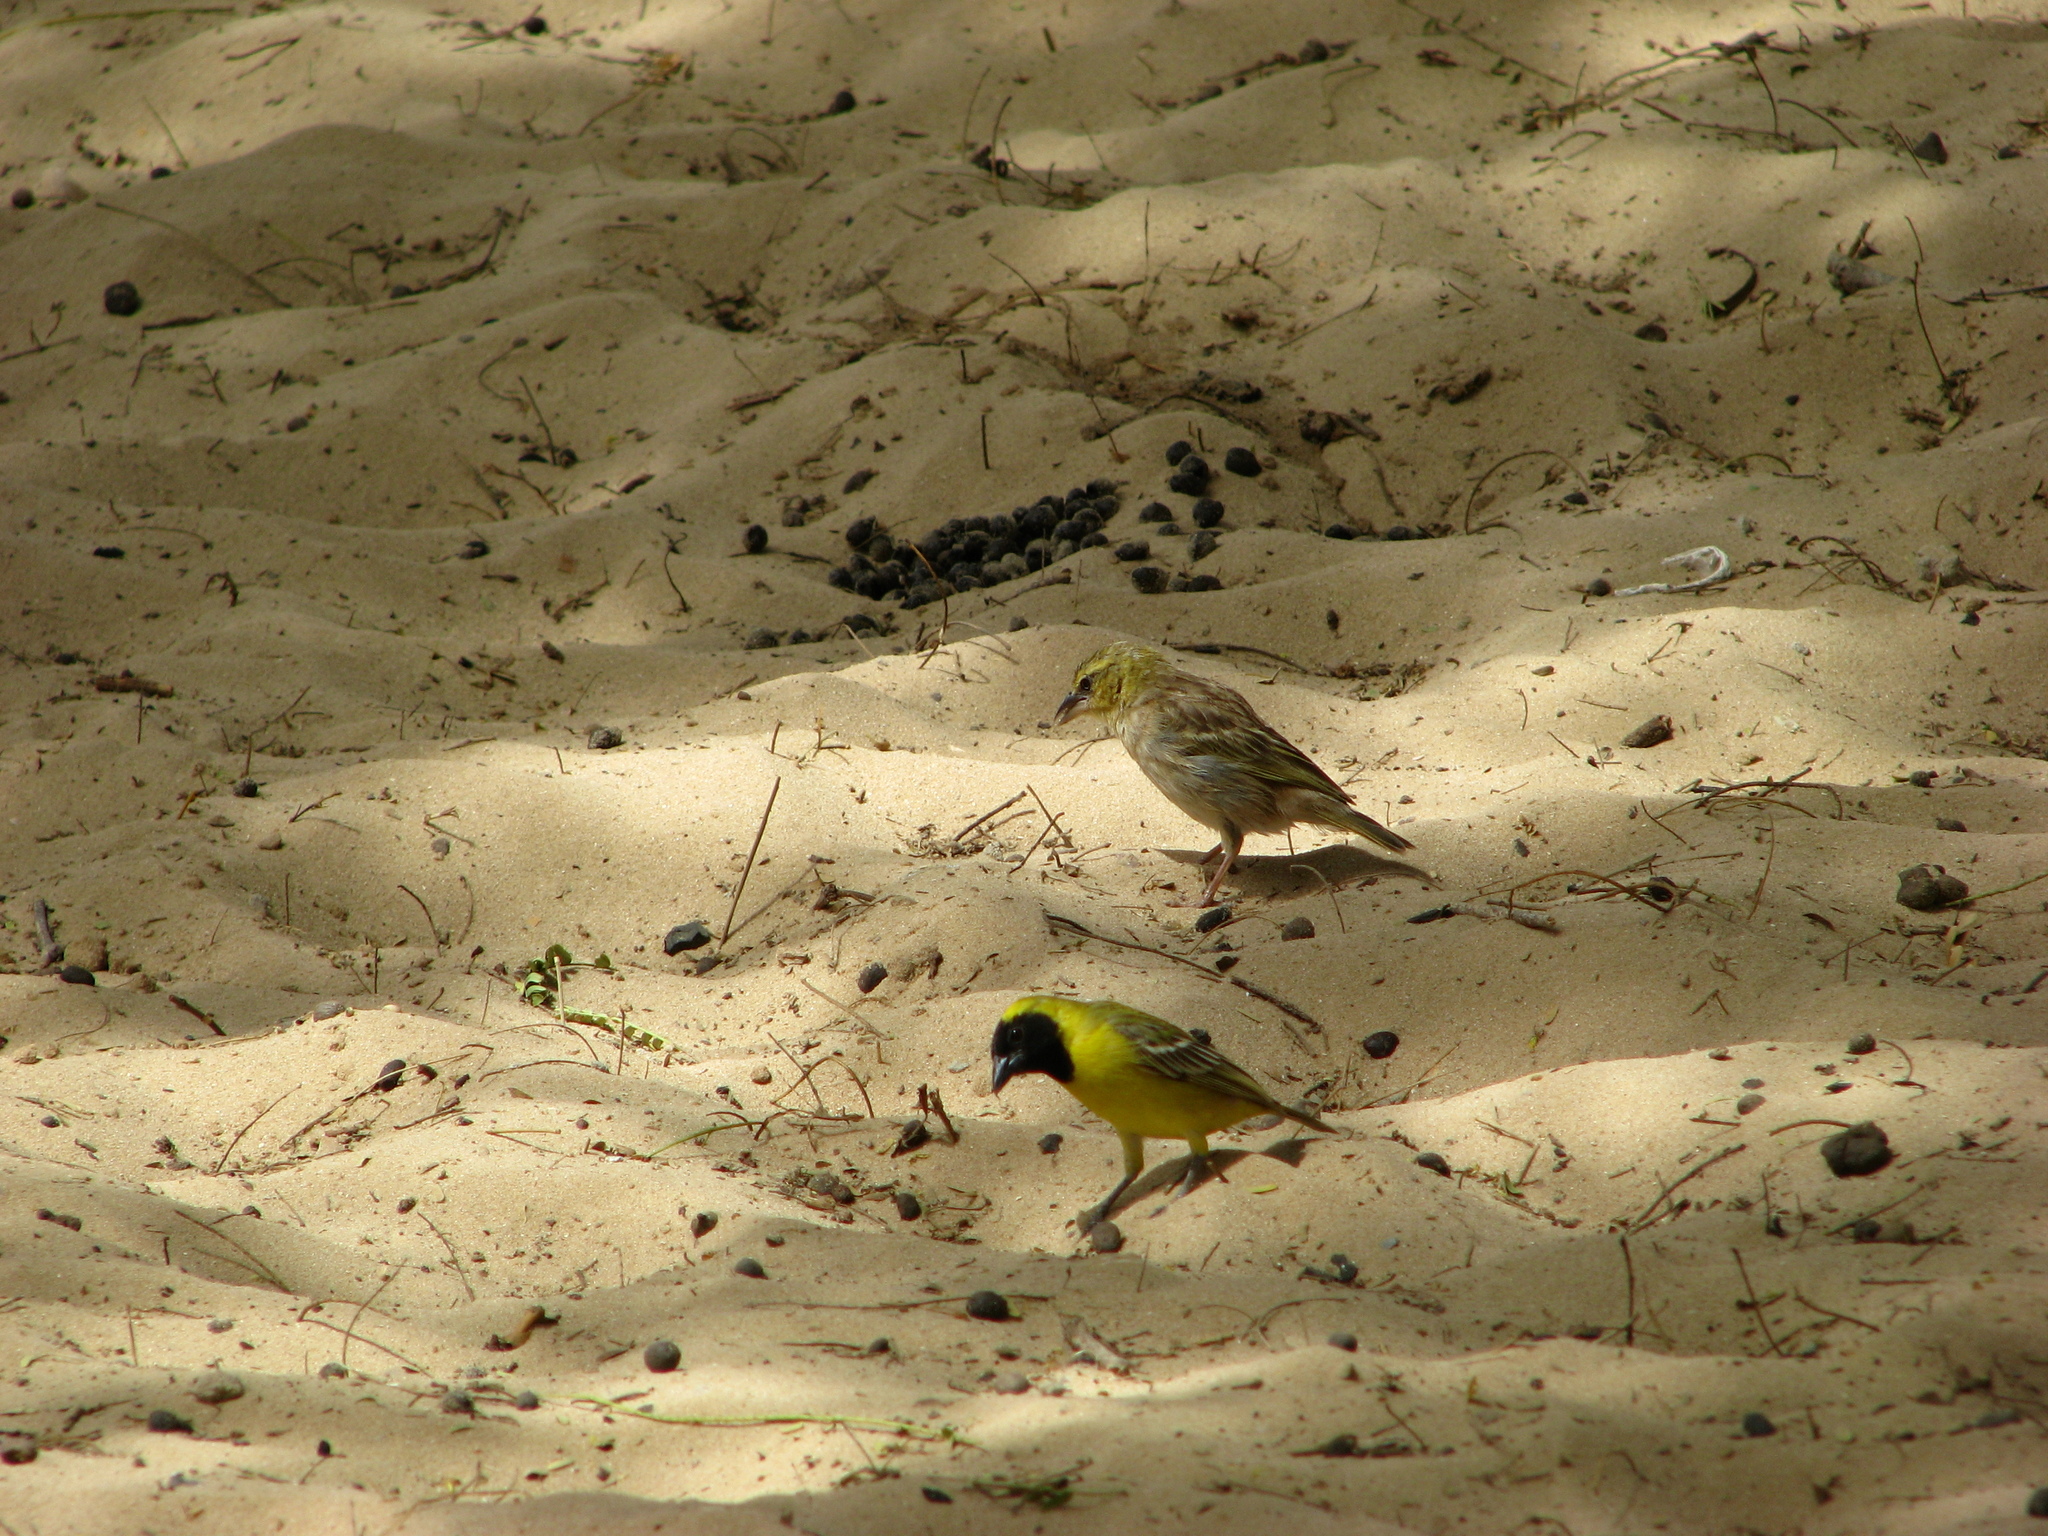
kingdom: Animalia
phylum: Chordata
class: Aves
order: Passeriformes
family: Ploceidae
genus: Ploceus
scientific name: Ploceus luteolus
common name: Little weaver
